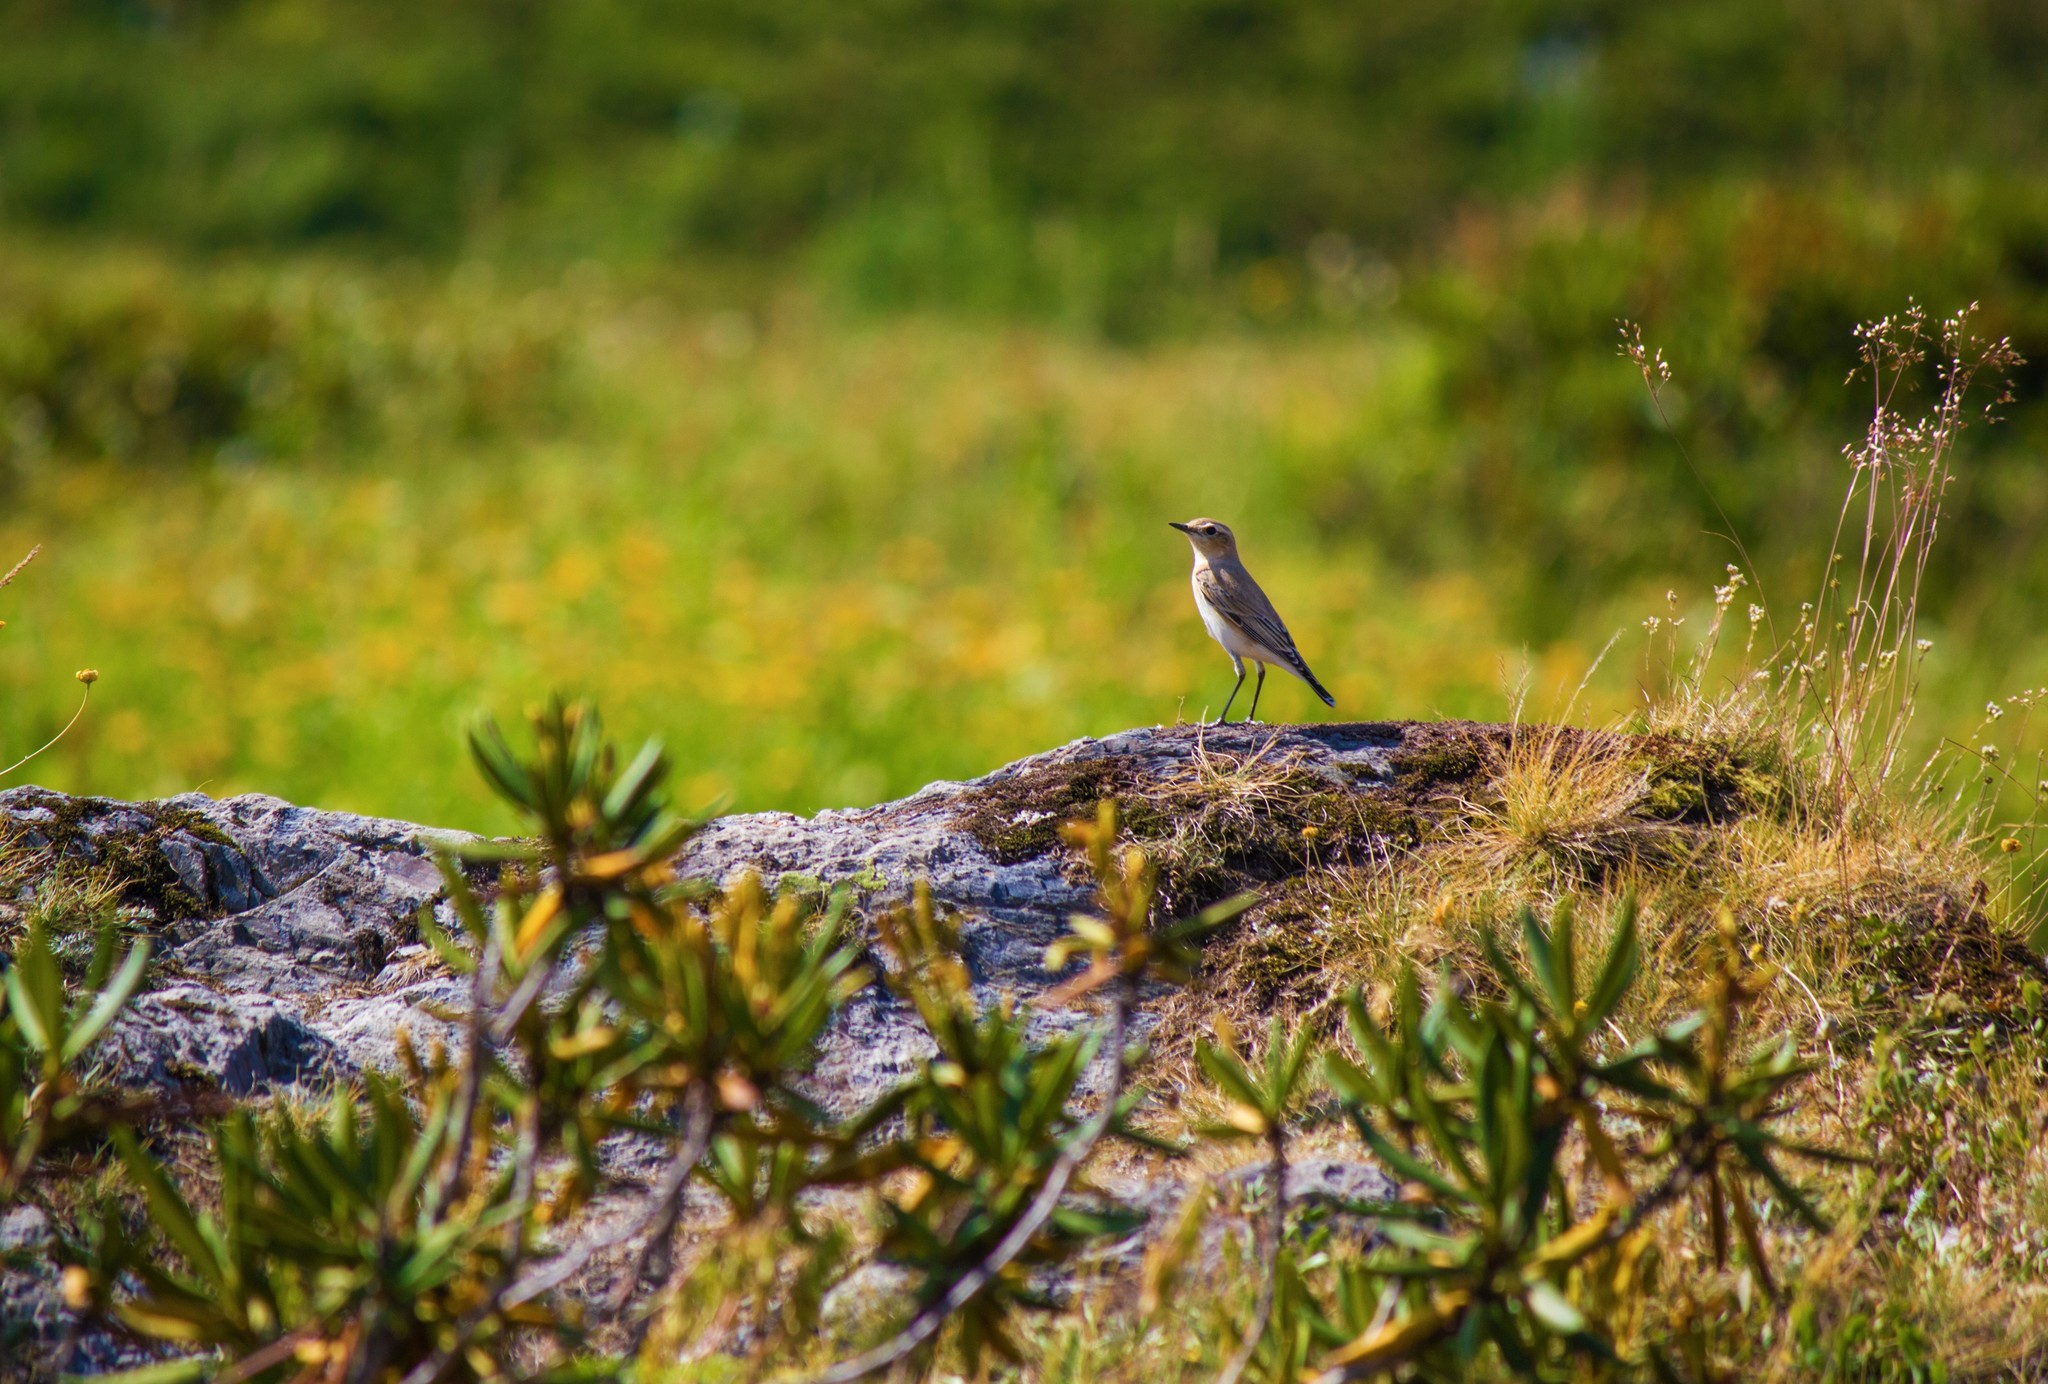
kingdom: Animalia
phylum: Chordata
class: Aves
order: Passeriformes
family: Muscicapidae
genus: Oenanthe
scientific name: Oenanthe oenanthe
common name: Northern wheatear
